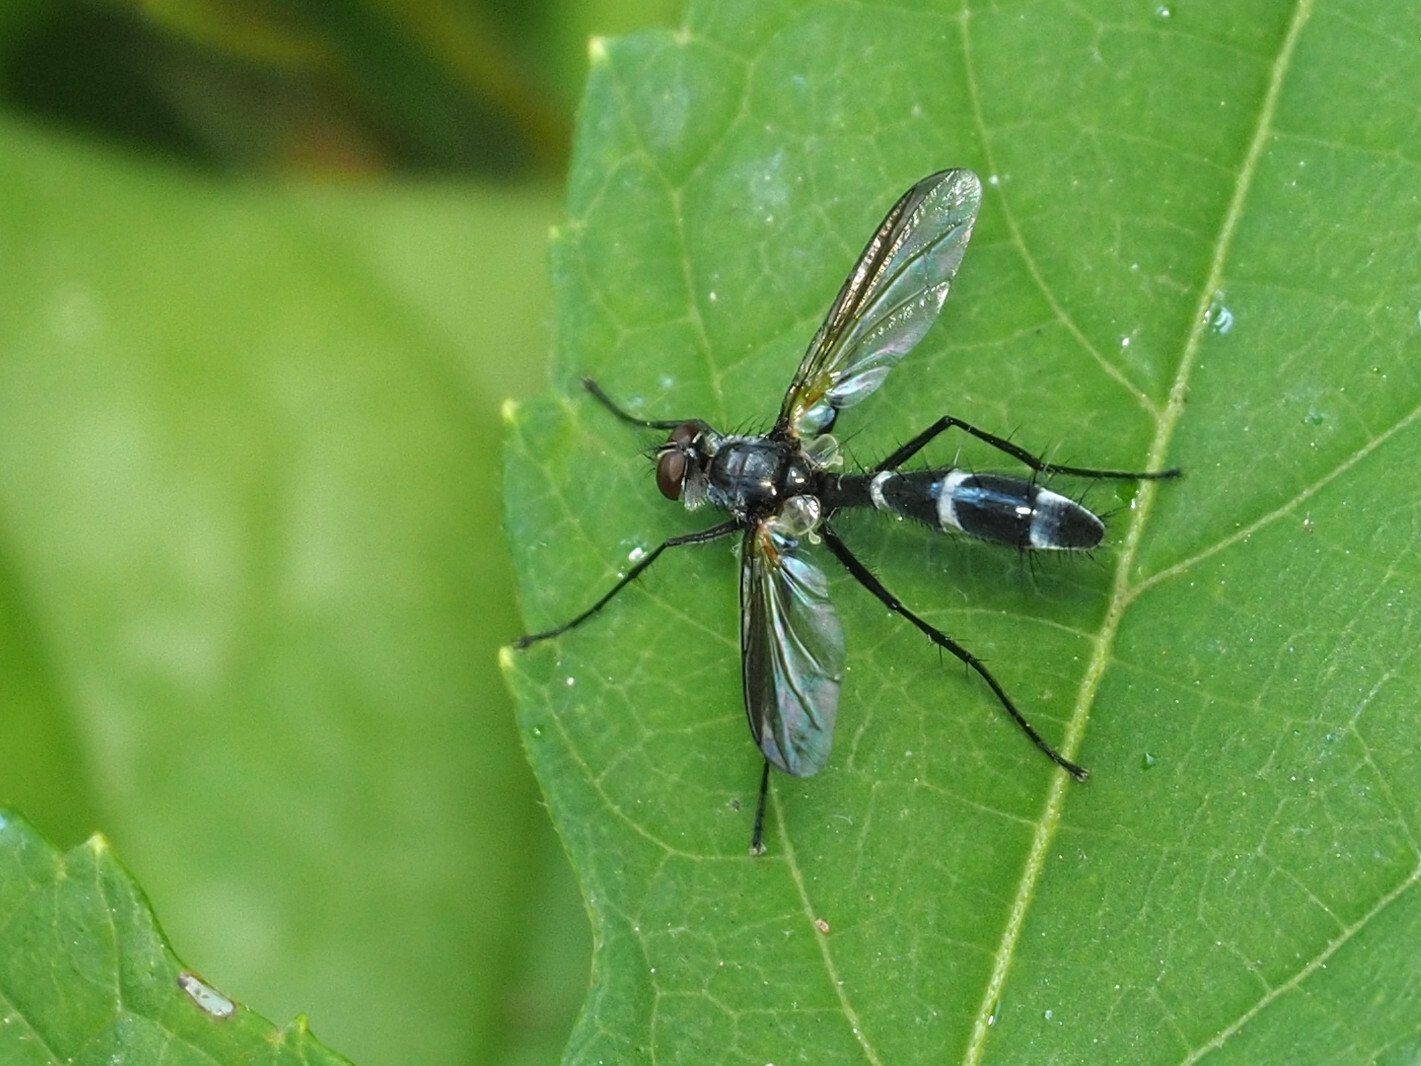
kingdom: Animalia
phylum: Arthropoda
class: Insecta
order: Diptera
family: Tachinidae
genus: Cordyligaster
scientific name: Cordyligaster septentrionalis
